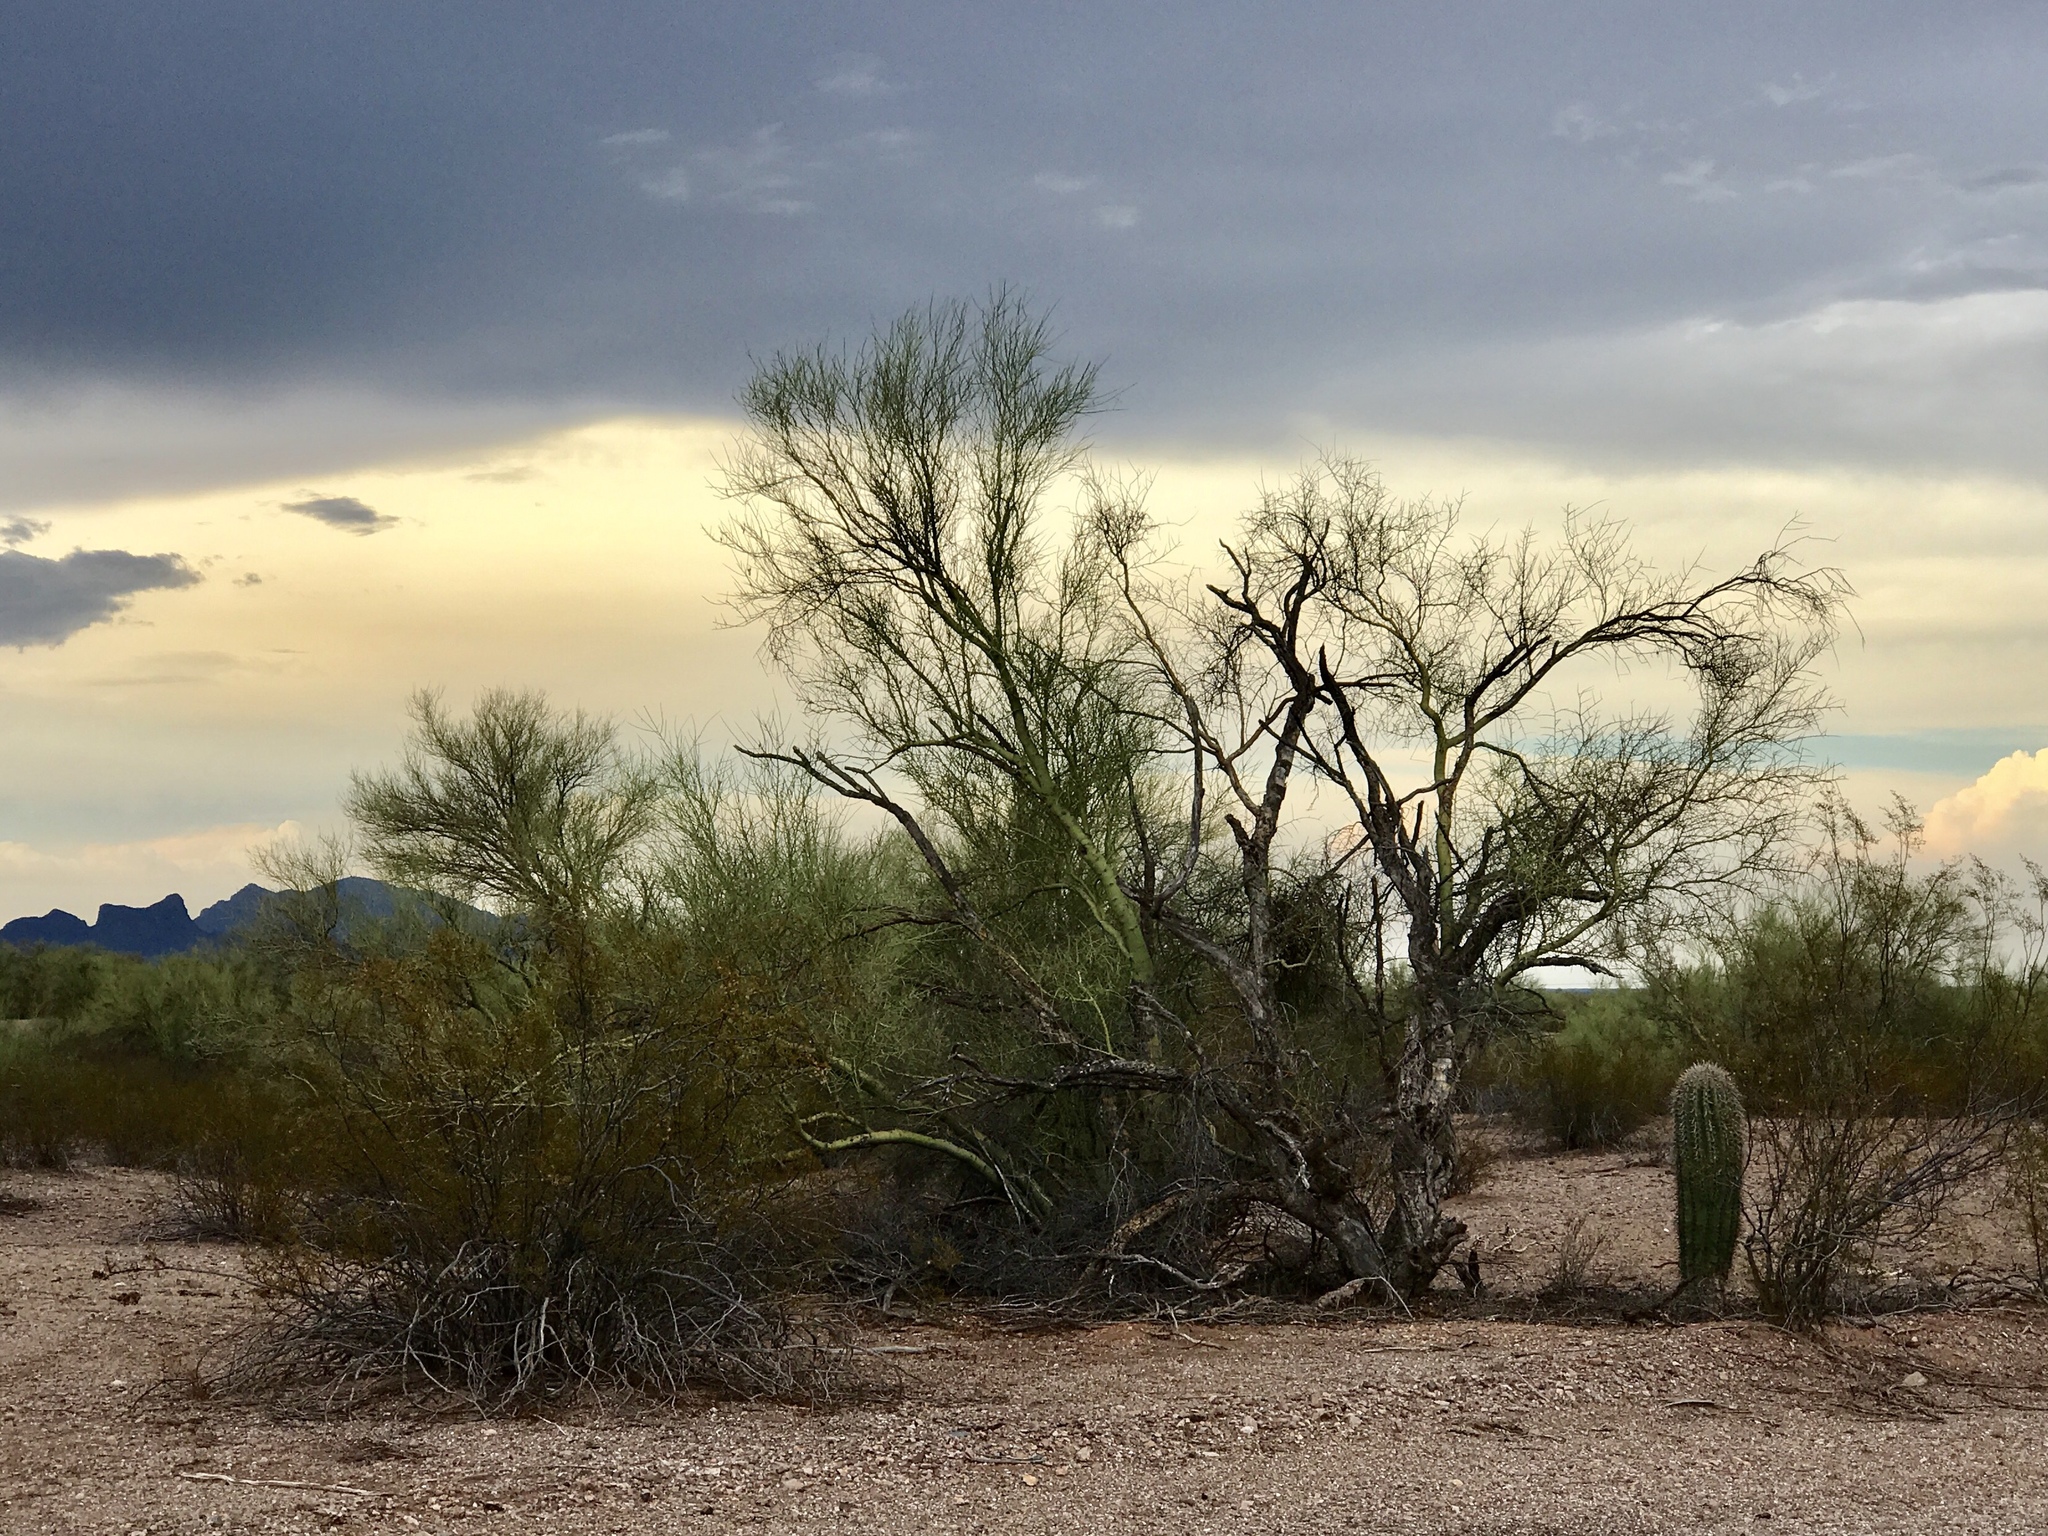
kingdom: Plantae
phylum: Tracheophyta
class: Magnoliopsida
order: Zygophyllales
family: Zygophyllaceae
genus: Larrea
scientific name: Larrea tridentata
